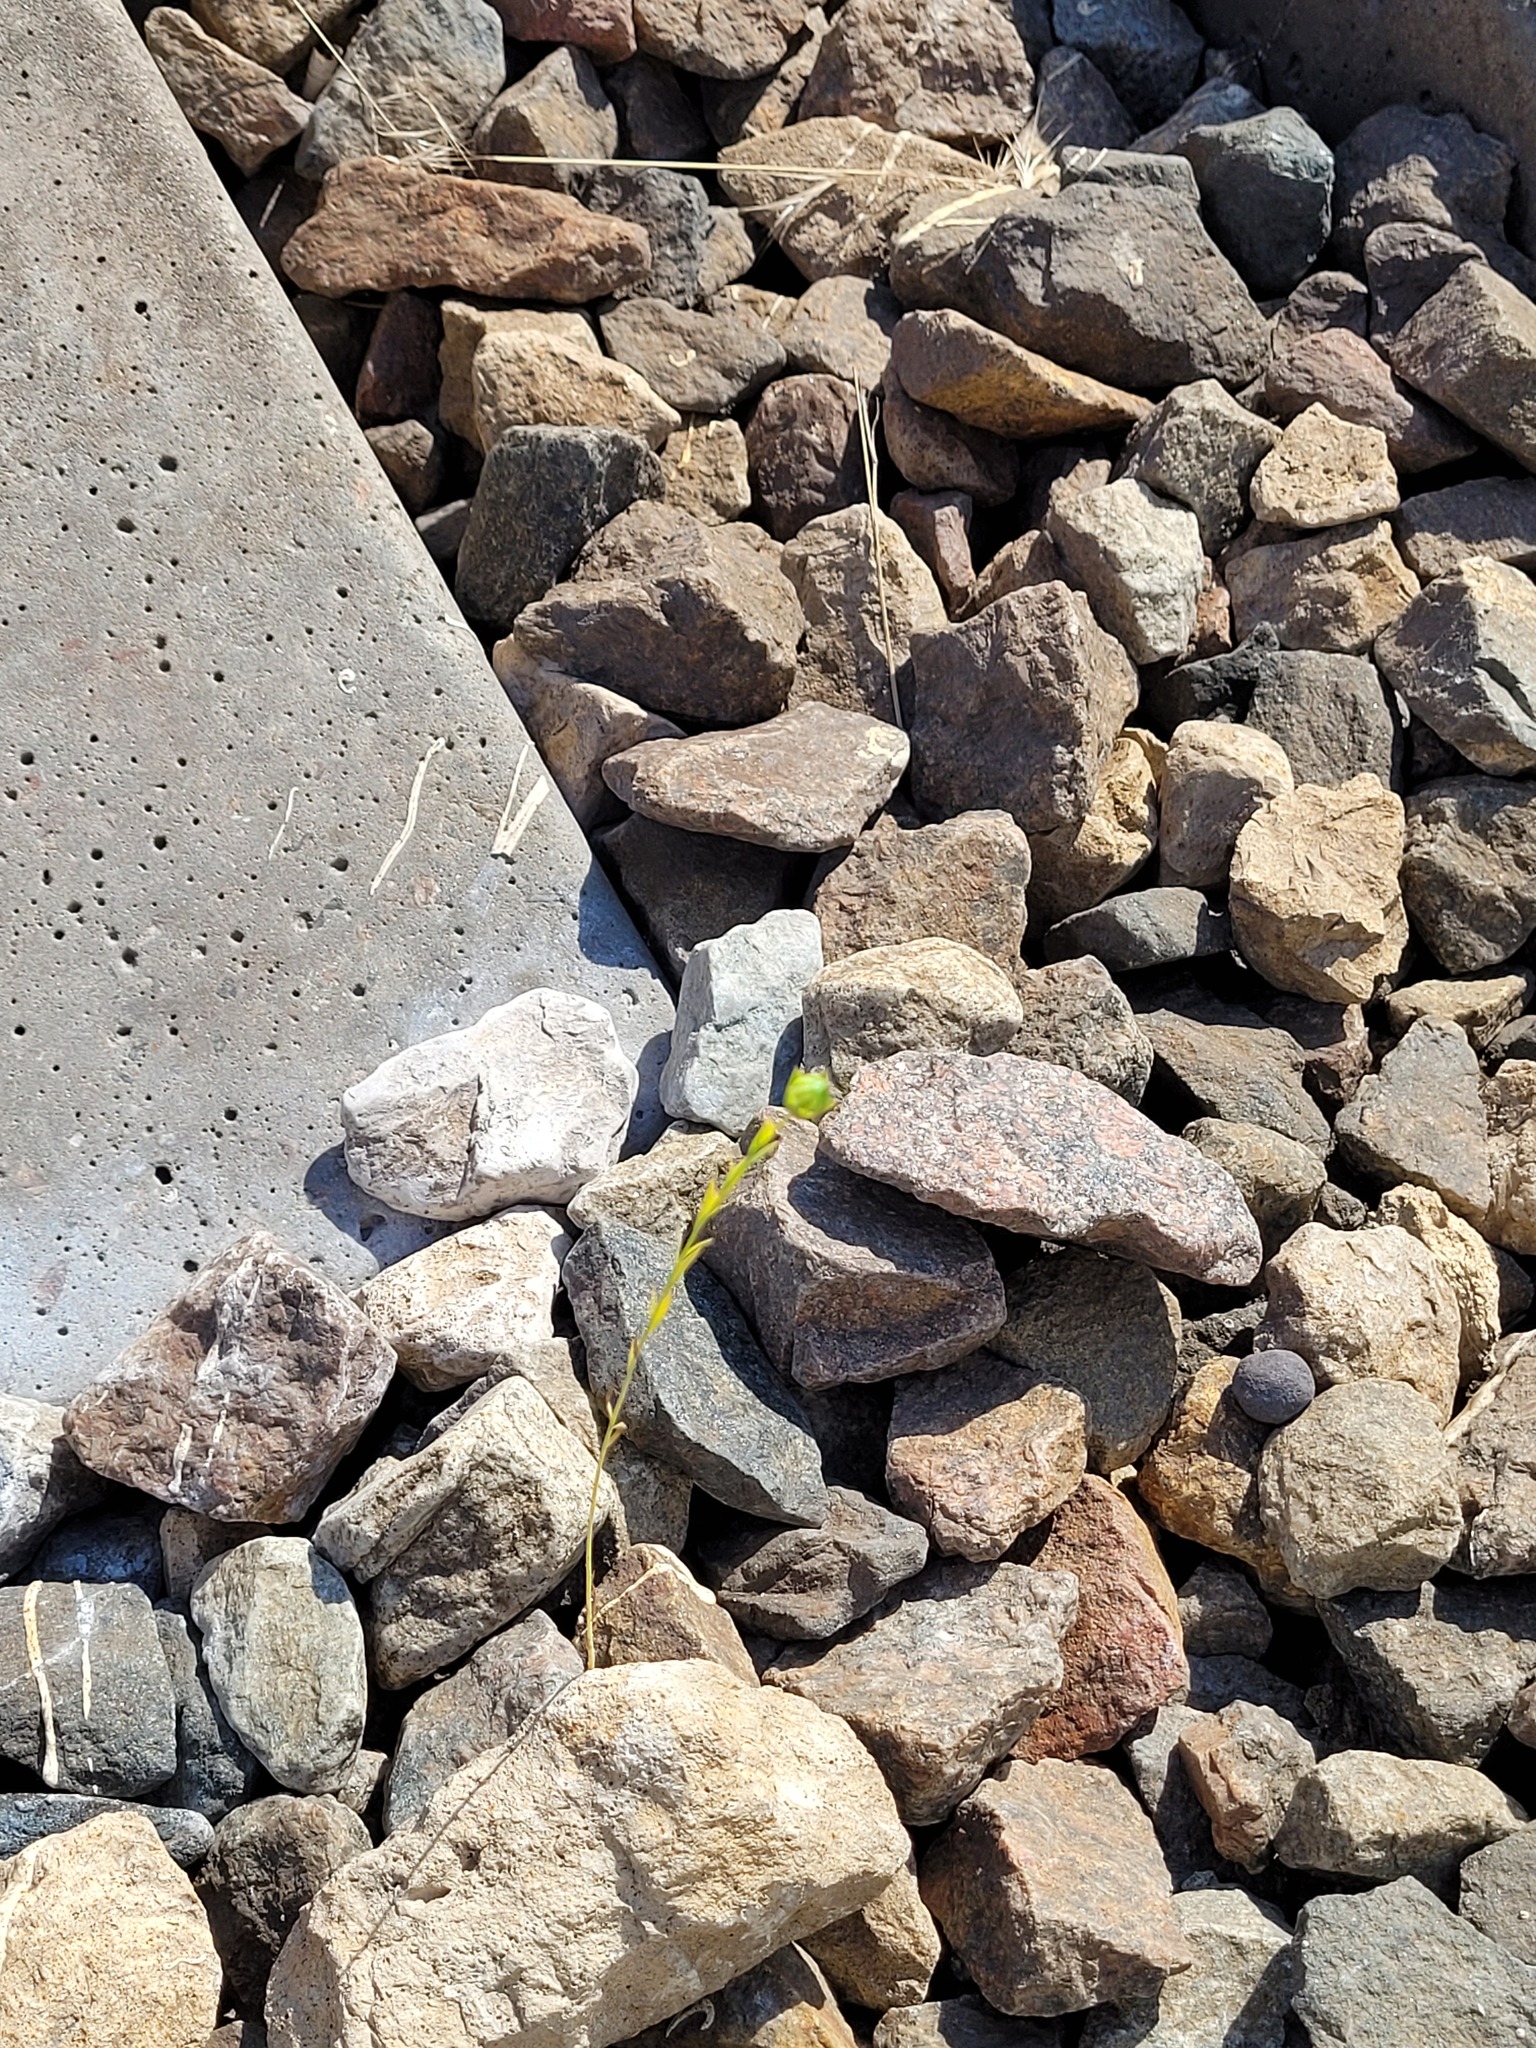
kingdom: Plantae
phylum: Tracheophyta
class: Magnoliopsida
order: Malpighiales
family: Linaceae
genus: Linum
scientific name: Linum usitatissimum
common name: Flax
